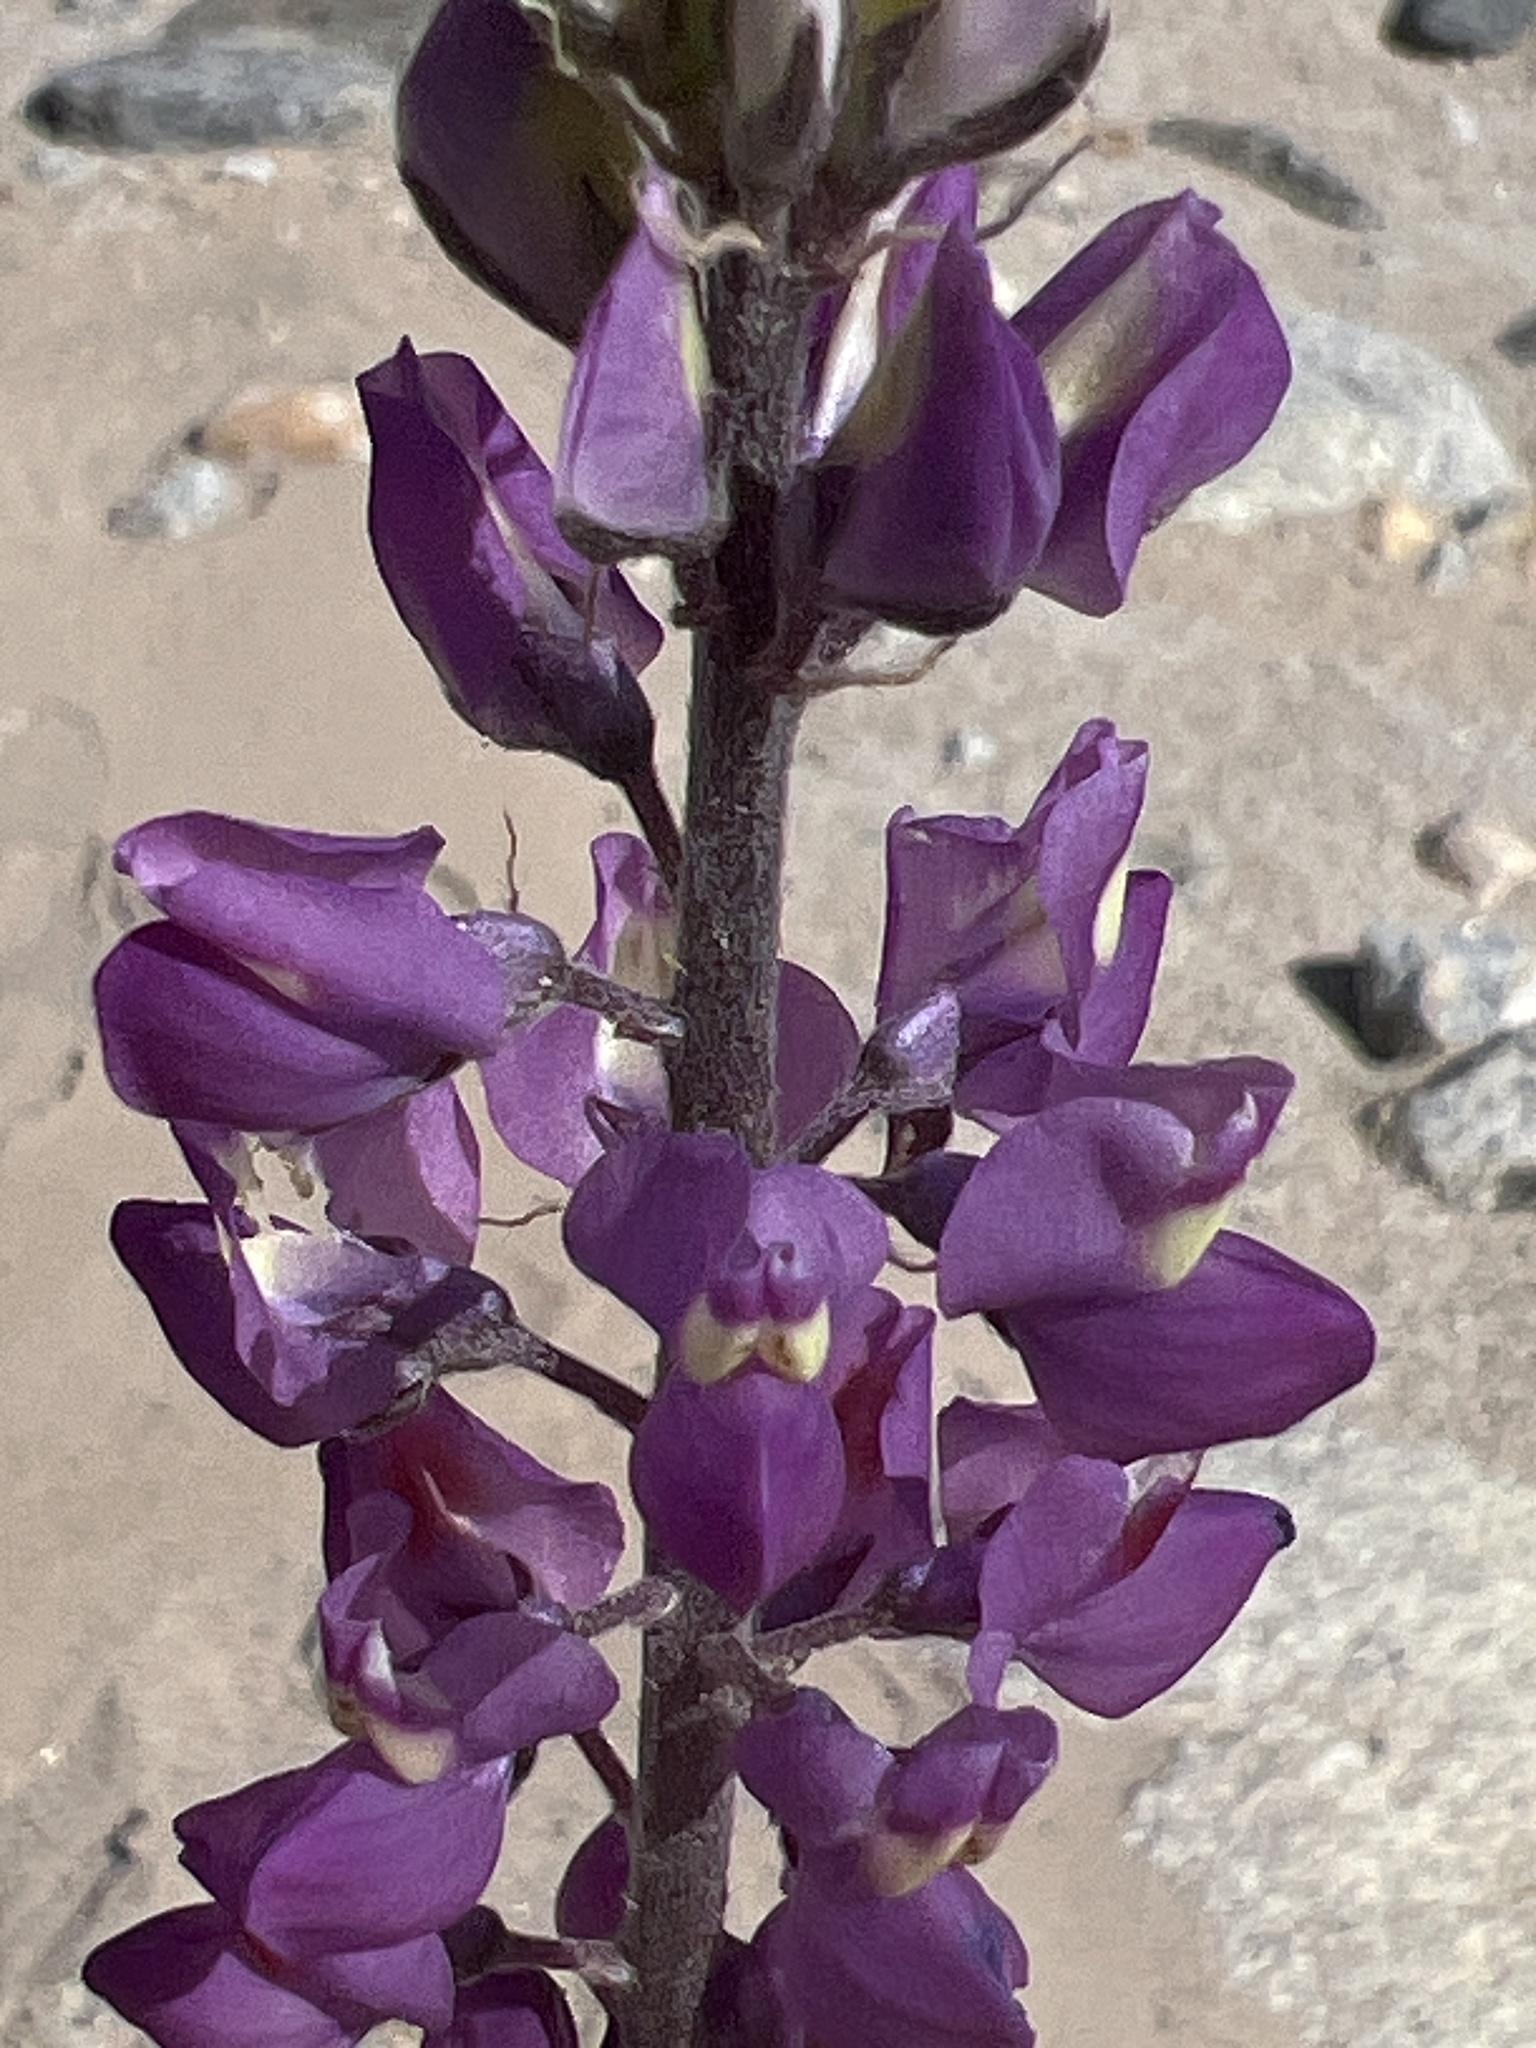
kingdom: Plantae
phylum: Tracheophyta
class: Magnoliopsida
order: Fabales
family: Fabaceae
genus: Lupinus
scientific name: Lupinus arizonicus
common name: Arizona lupine
